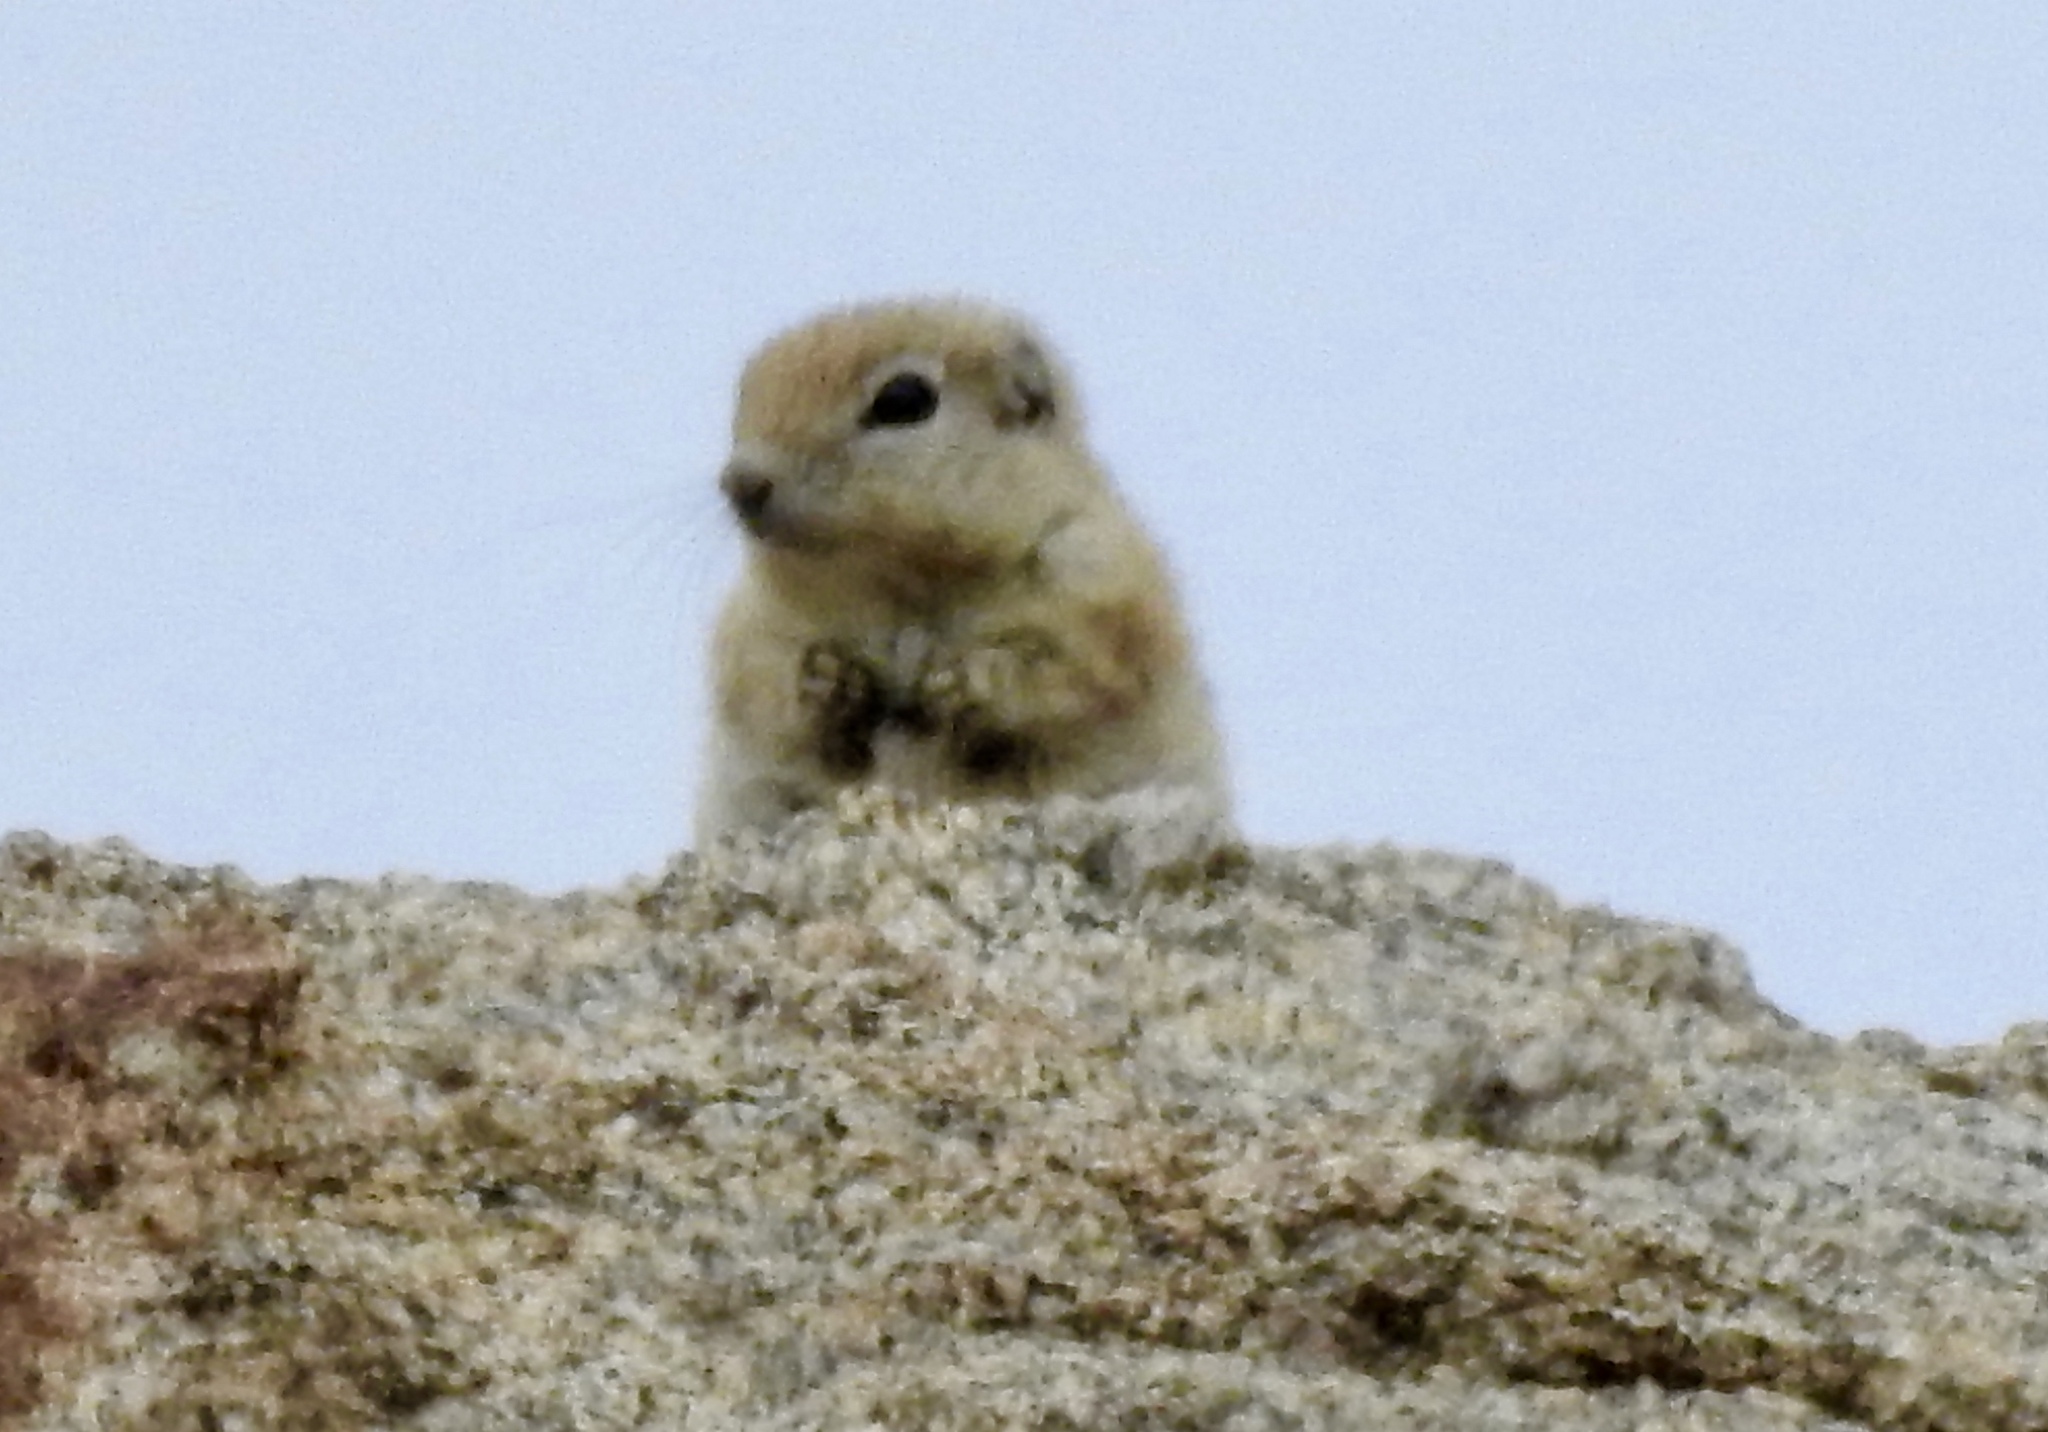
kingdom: Animalia
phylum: Chordata
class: Mammalia
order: Rodentia
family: Sciuridae
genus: Ammospermophilus
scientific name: Ammospermophilus leucurus
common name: White-tailed antelope squirrel
